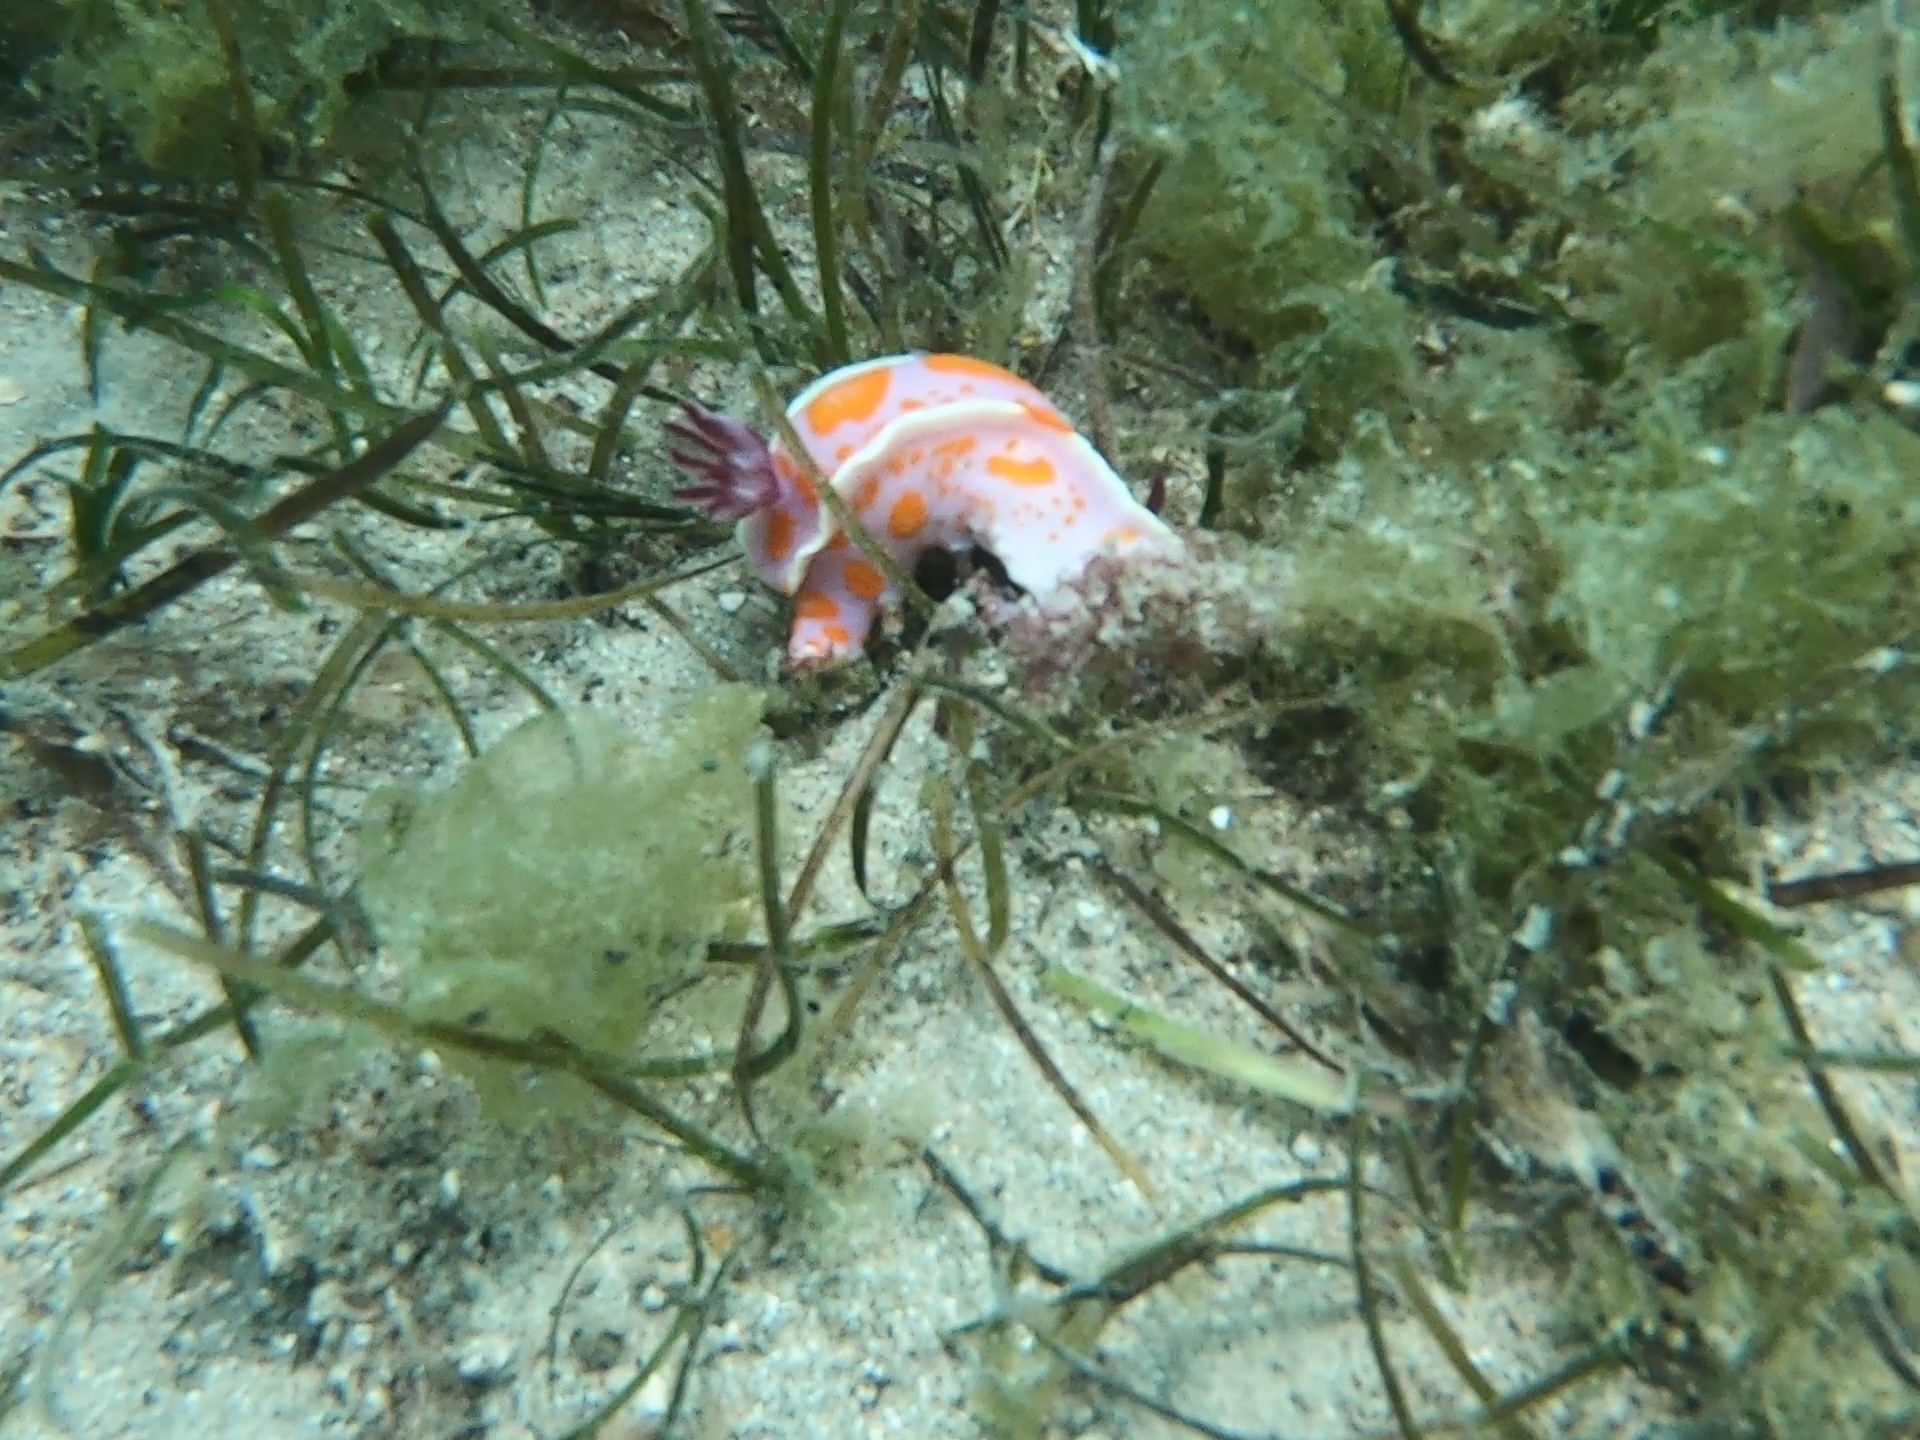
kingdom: Animalia
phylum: Mollusca
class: Gastropoda
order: Nudibranchia
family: Chromodorididae
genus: Ceratosoma
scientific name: Ceratosoma amoenum
